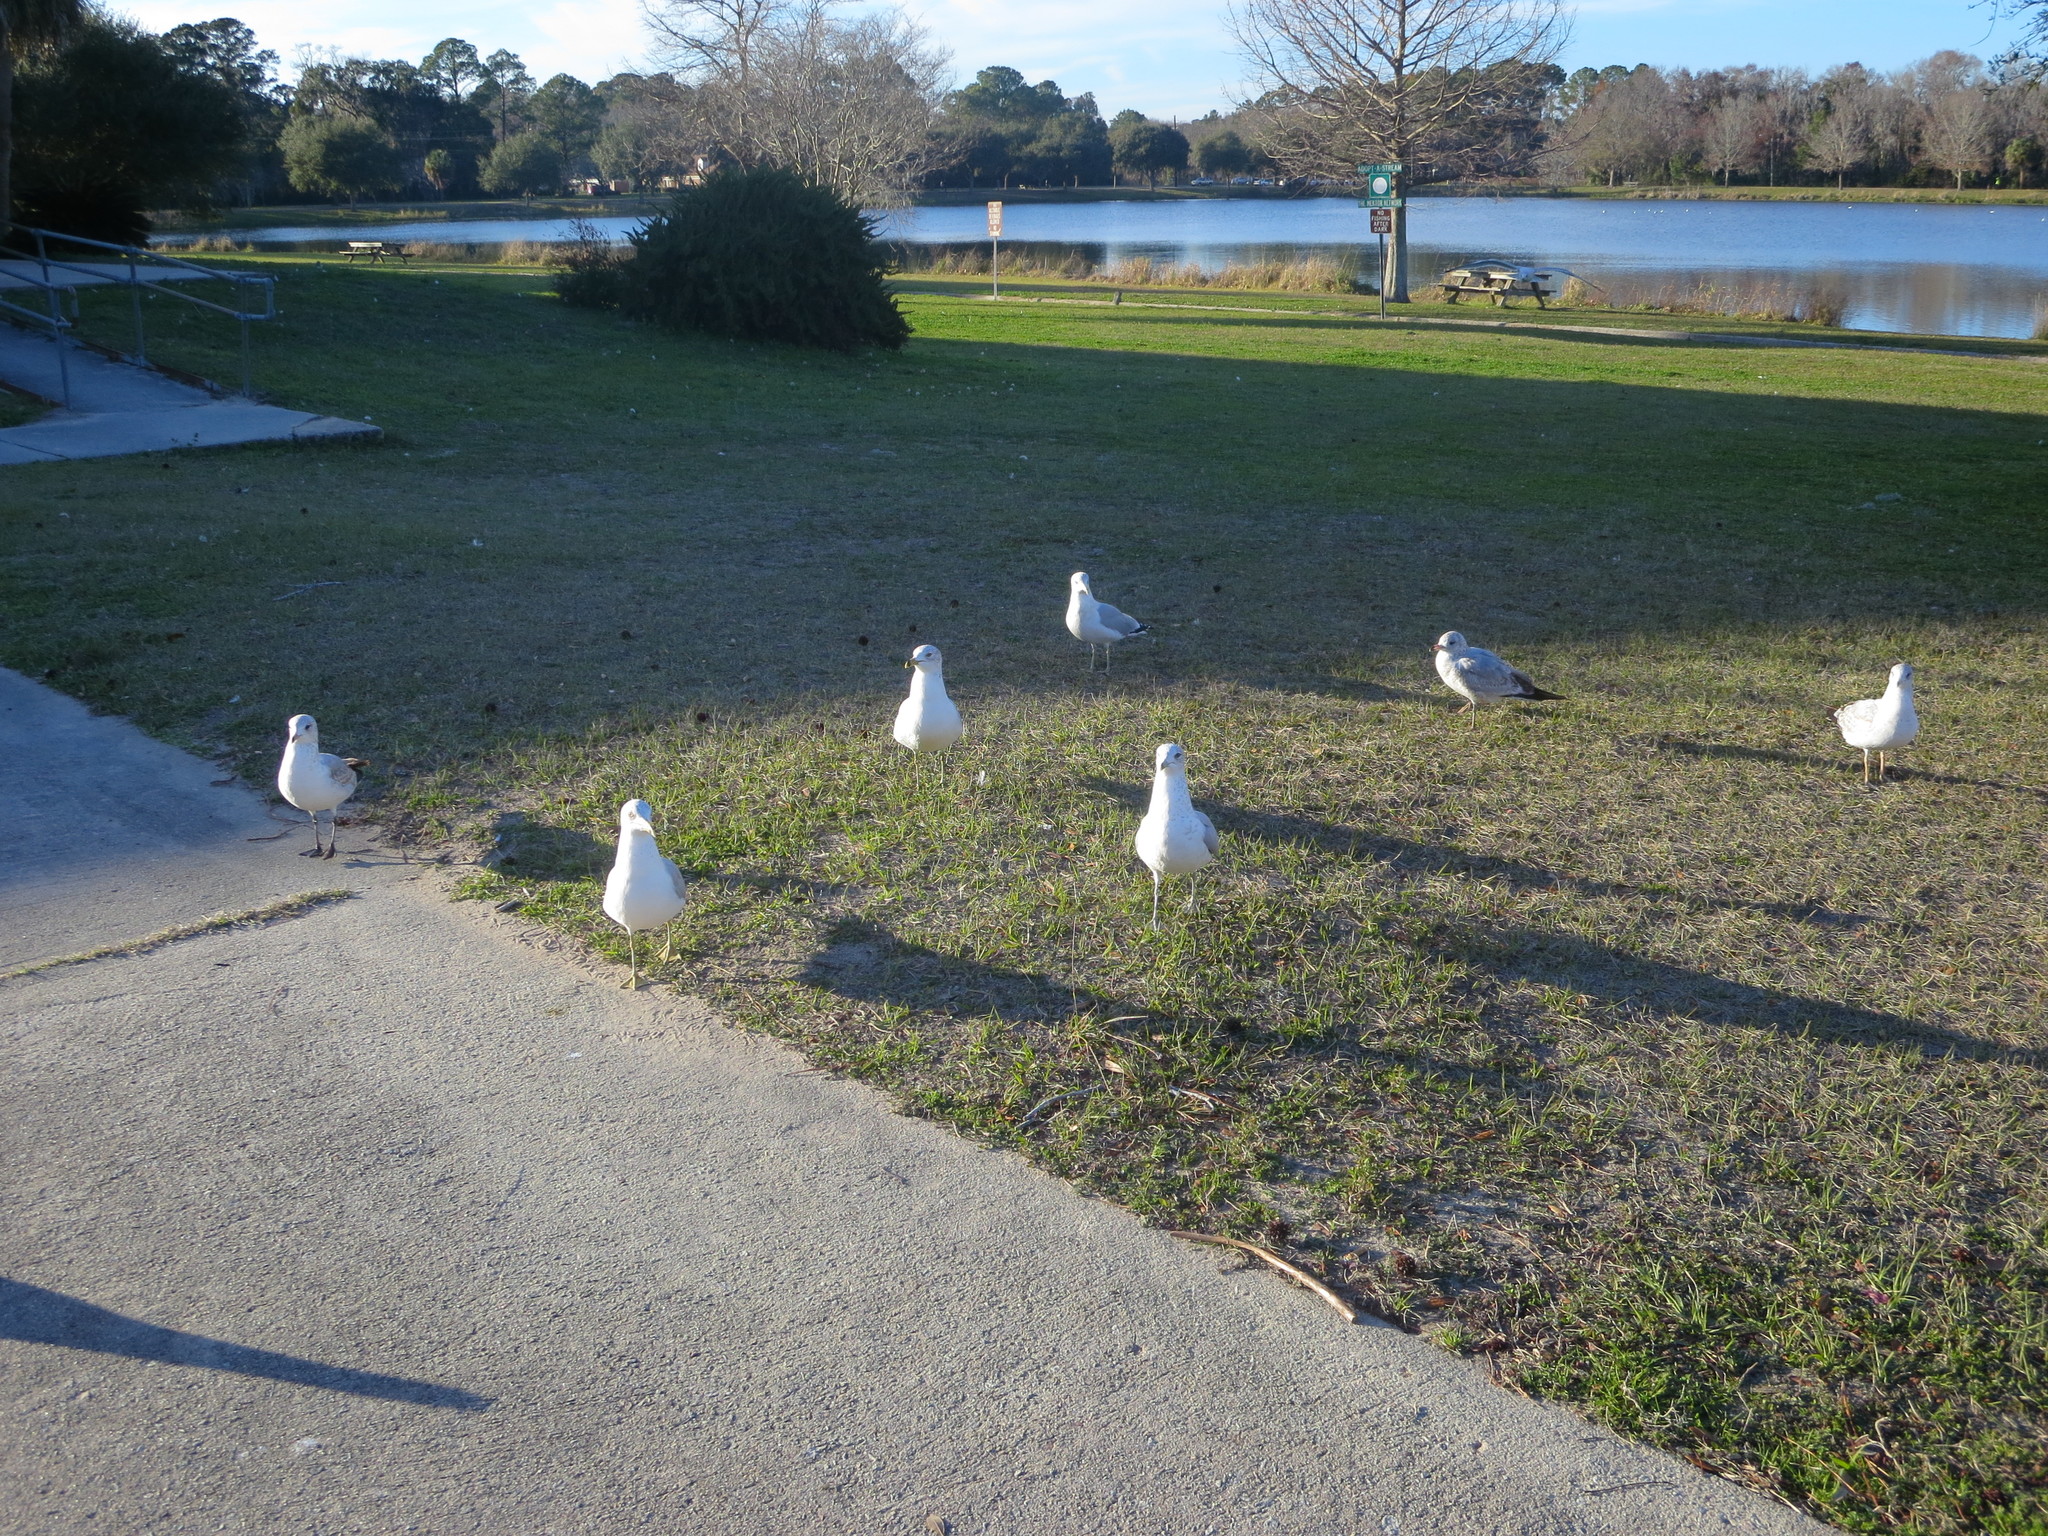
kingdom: Animalia
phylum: Chordata
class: Aves
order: Charadriiformes
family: Laridae
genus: Larus
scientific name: Larus delawarensis
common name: Ring-billed gull
